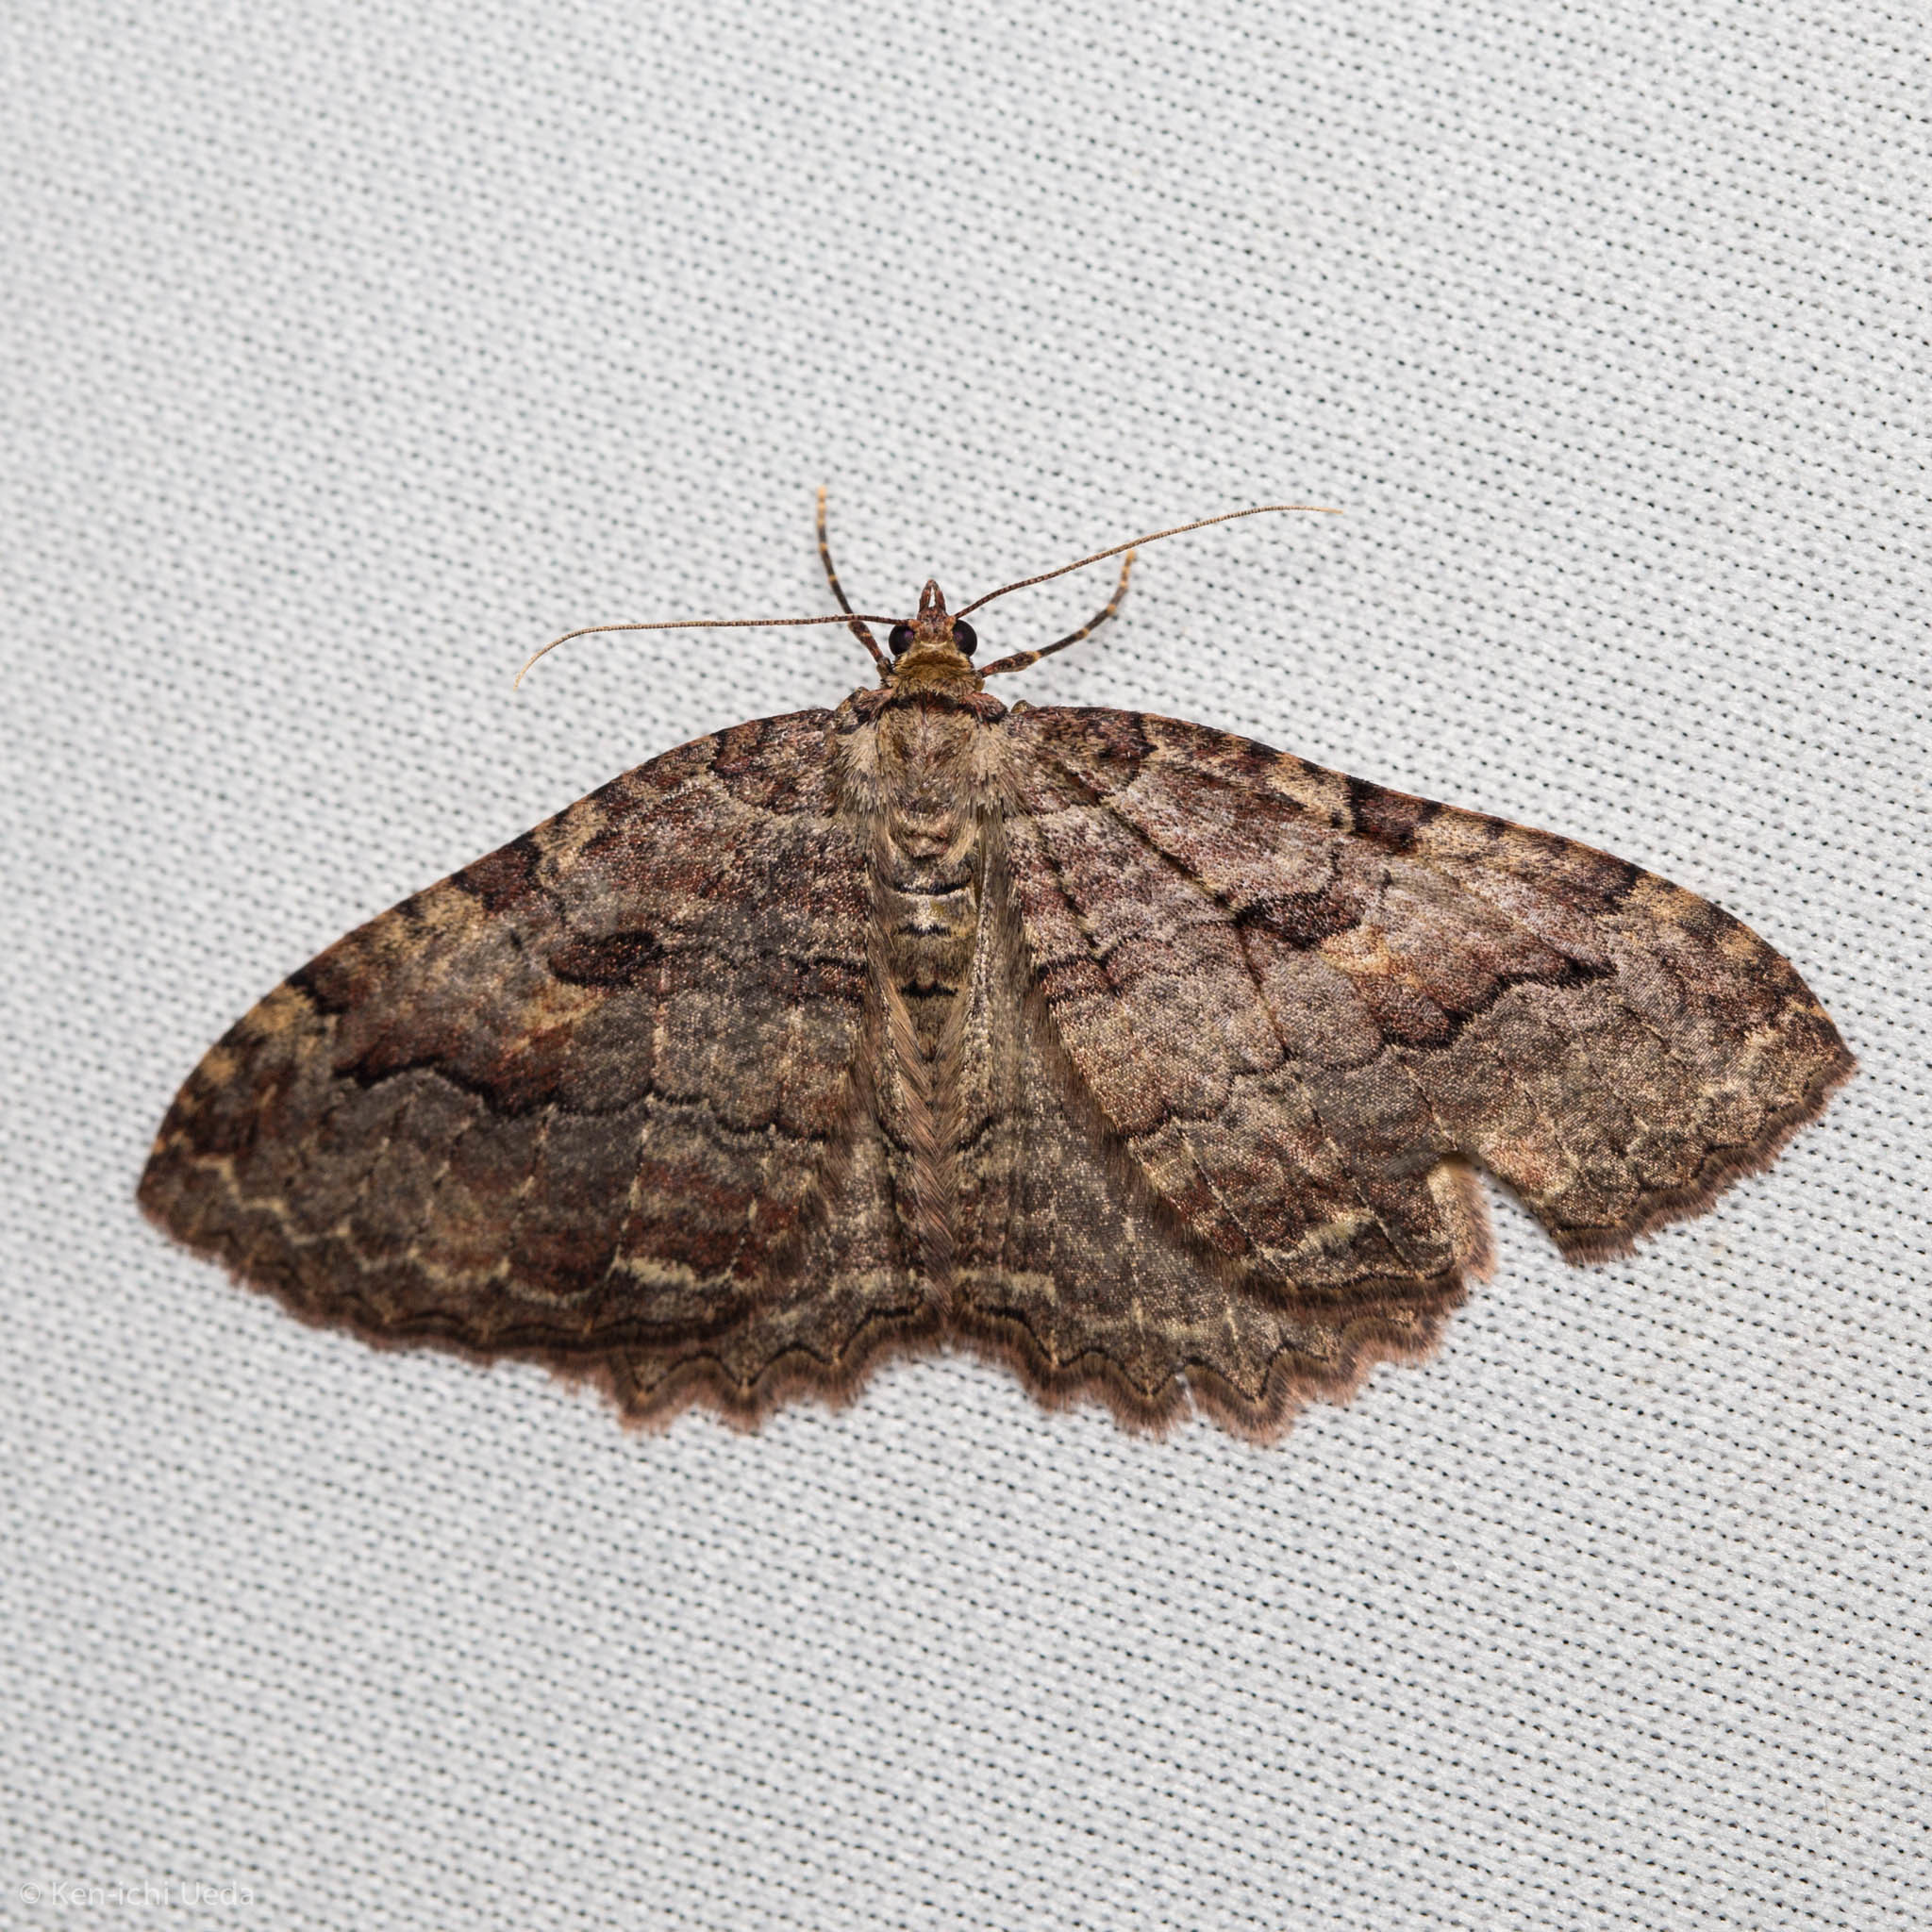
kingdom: Animalia
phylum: Arthropoda
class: Insecta
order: Lepidoptera
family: Geometridae
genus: Triphosa
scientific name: Triphosa haesitata
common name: Tissue moth
